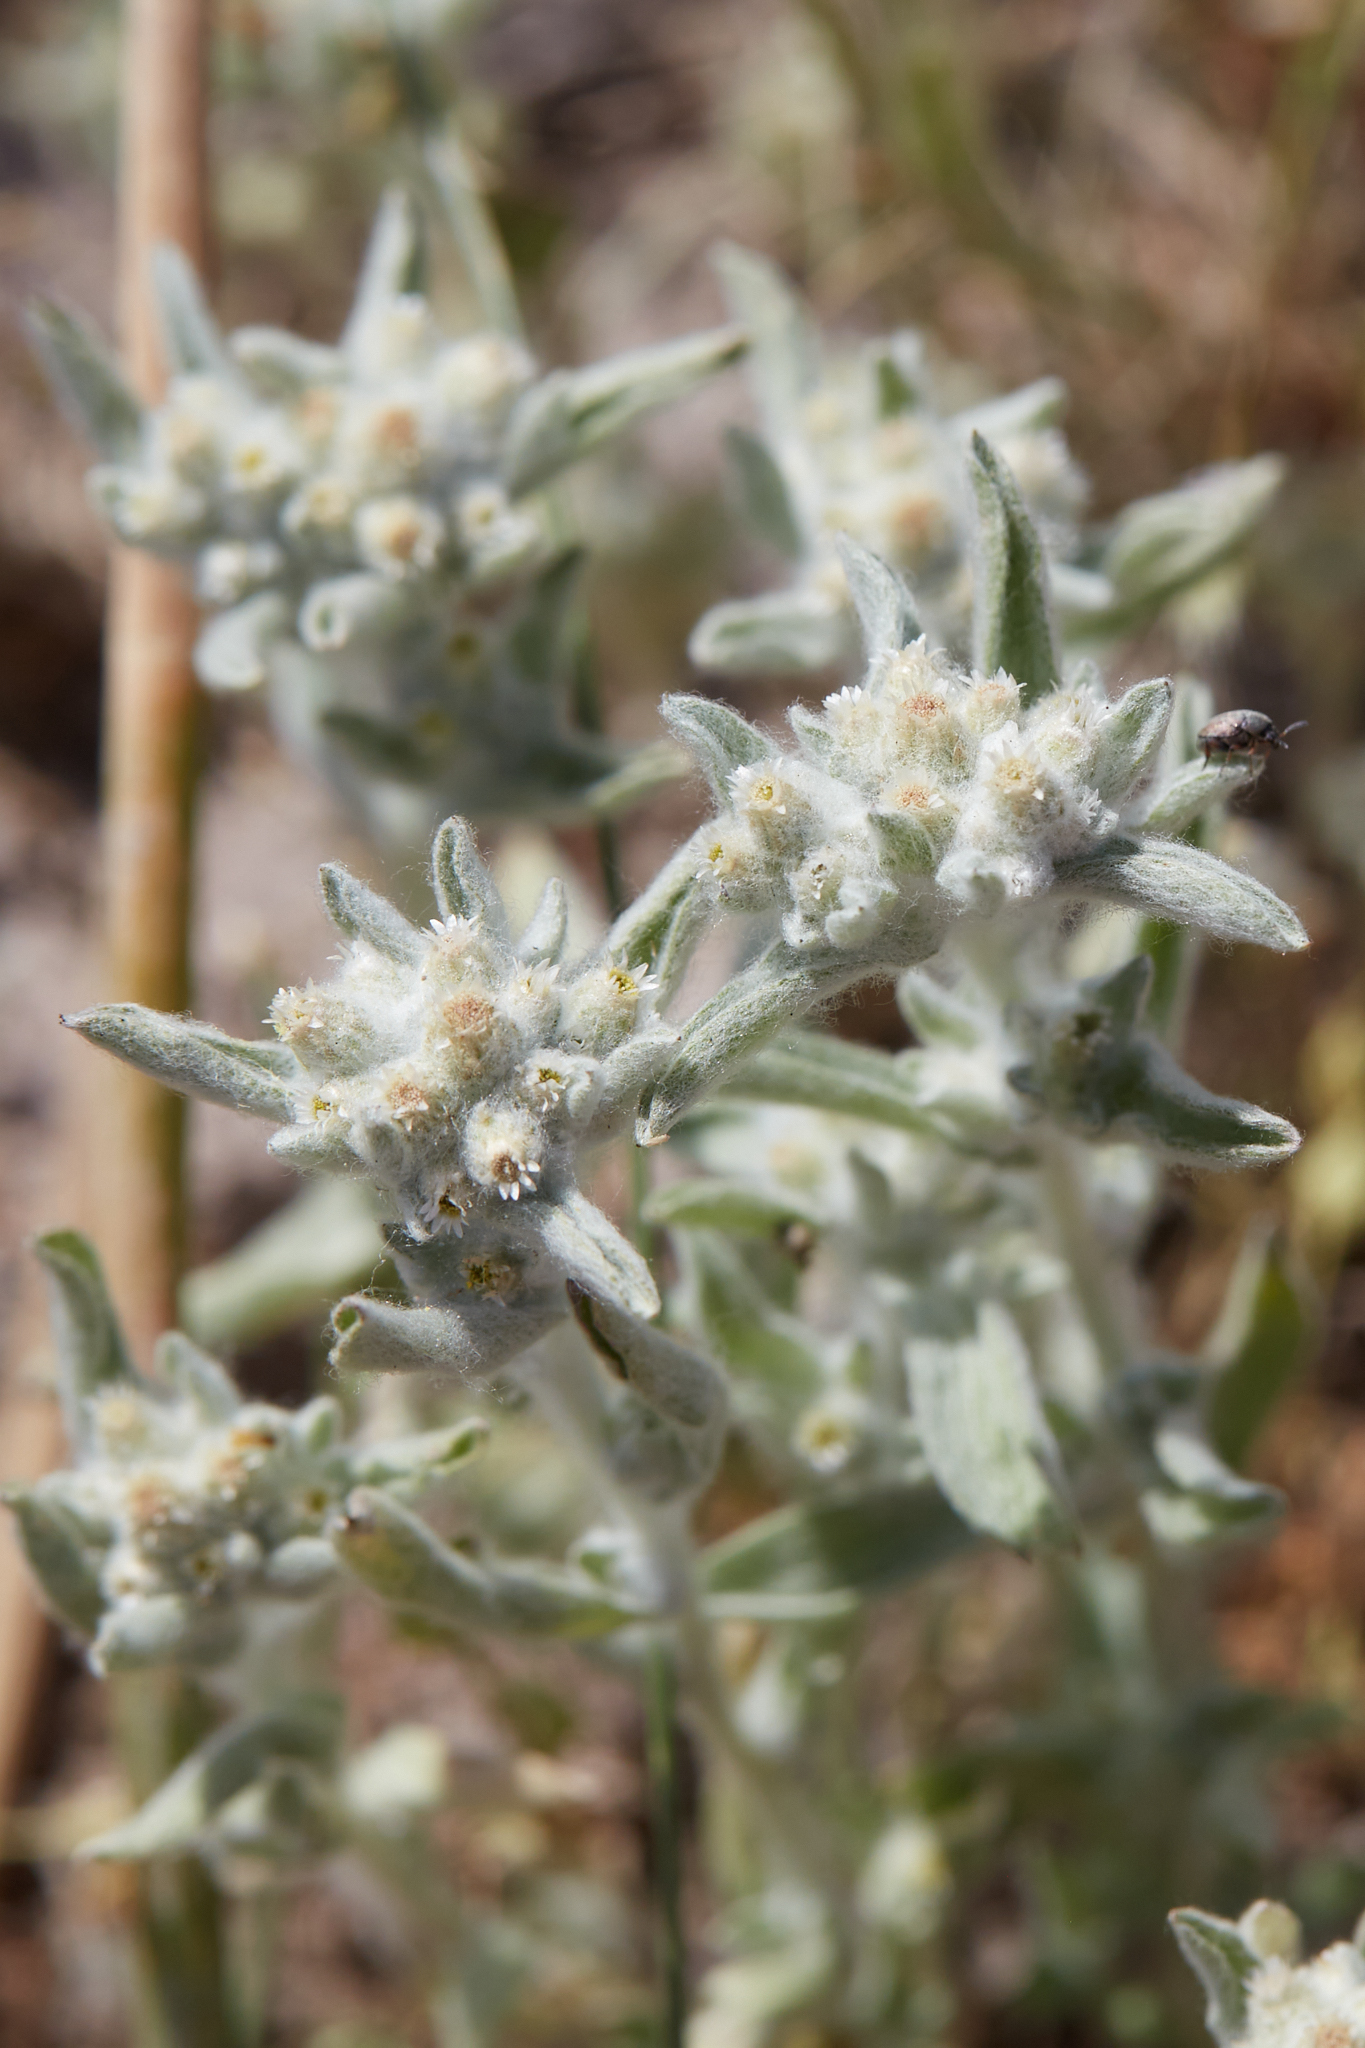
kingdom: Plantae
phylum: Tracheophyta
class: Magnoliopsida
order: Asterales
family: Asteraceae
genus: Gnaphalium
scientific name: Gnaphalium palustre
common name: Western marsh cudweed
